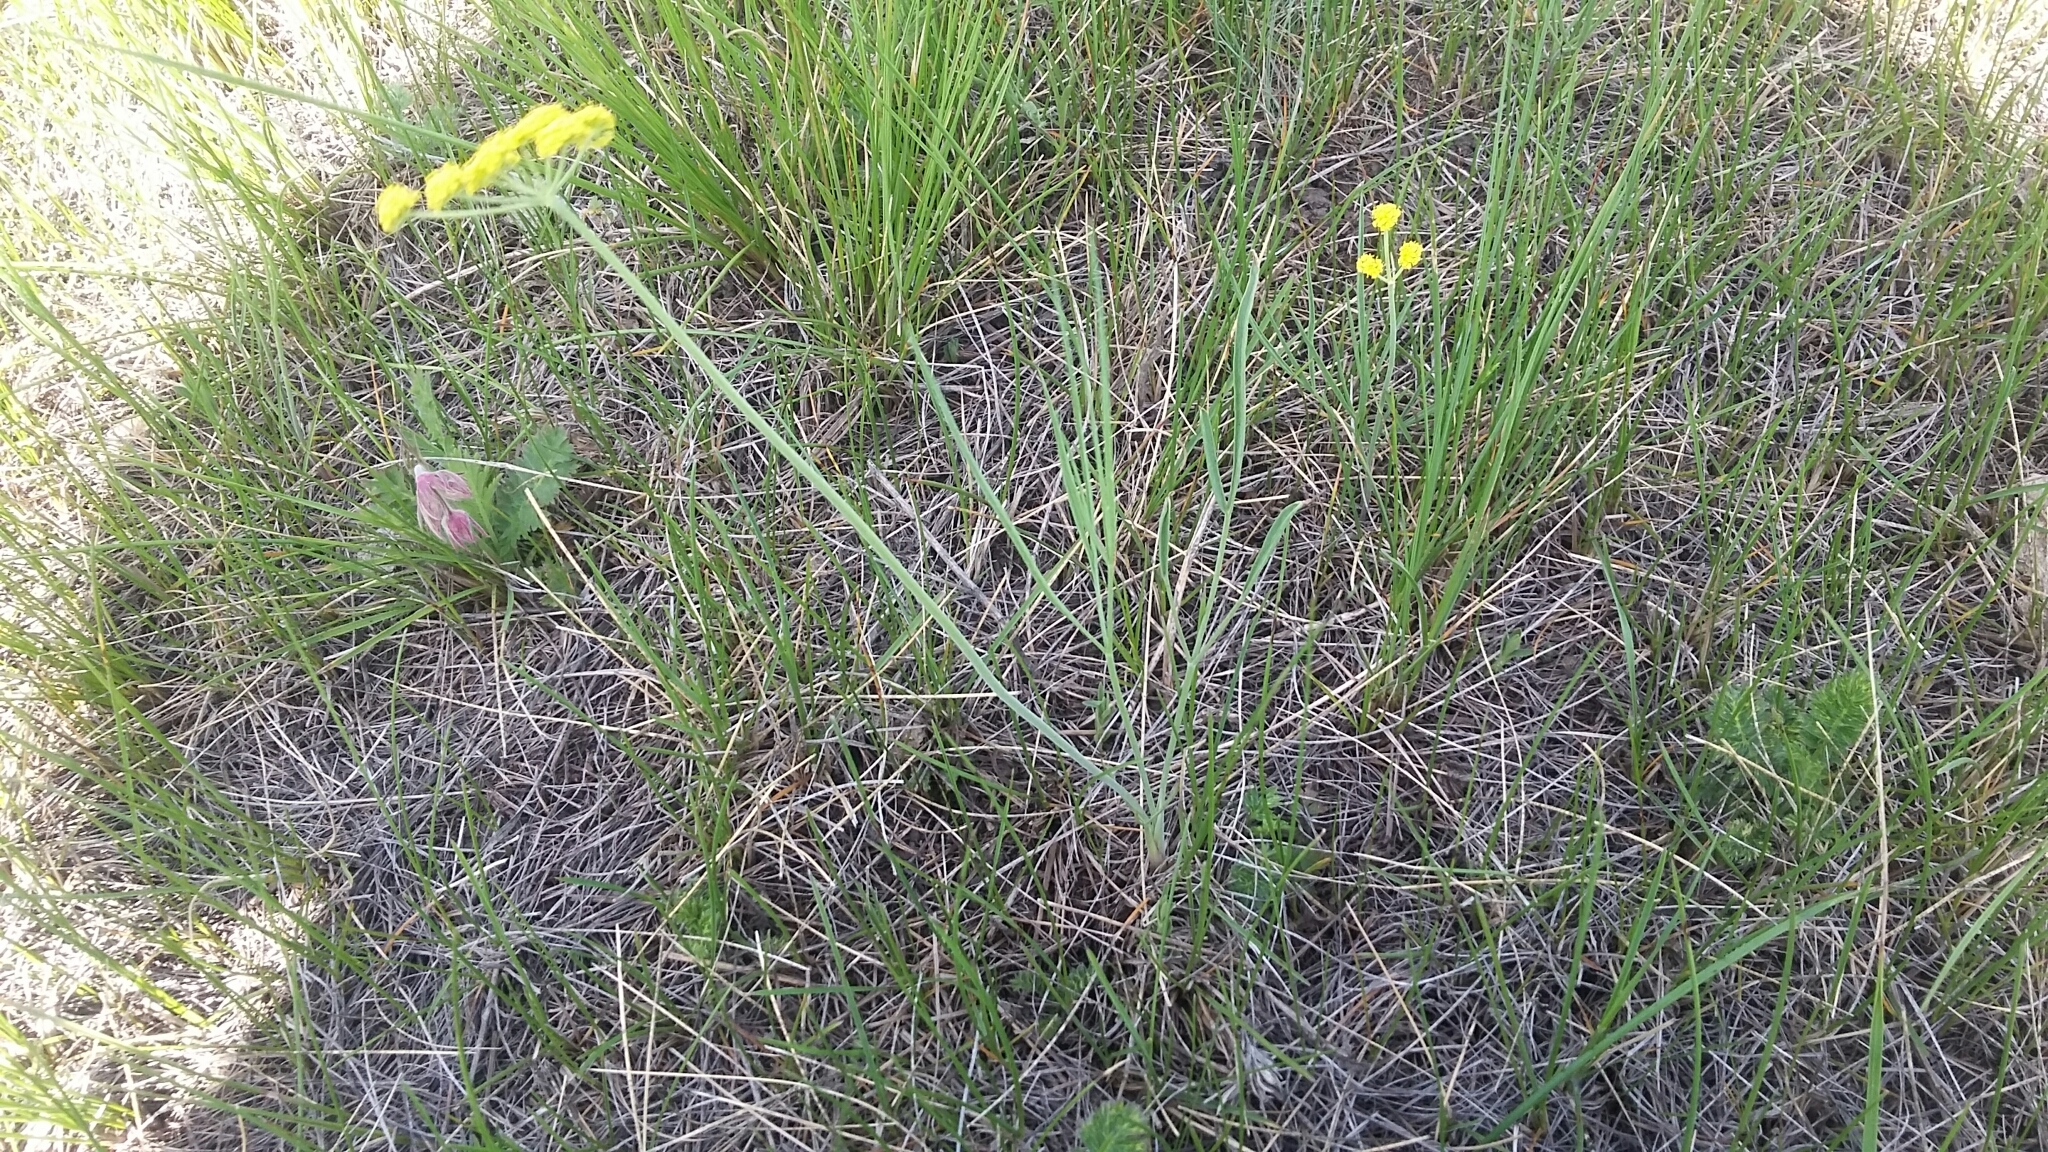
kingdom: Plantae
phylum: Tracheophyta
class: Magnoliopsida
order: Apiales
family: Apiaceae
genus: Lomatium
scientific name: Lomatium triternatum
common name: Ternate lomatium
